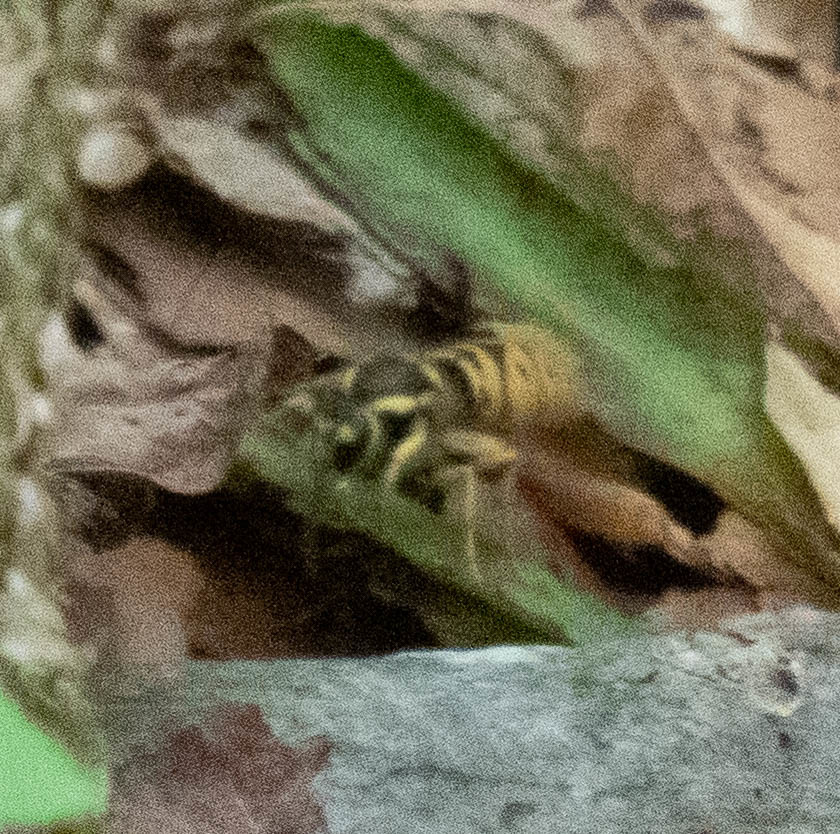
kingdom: Animalia
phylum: Arthropoda
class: Insecta
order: Hymenoptera
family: Vespidae
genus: Vespula
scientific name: Vespula maculifrons
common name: Eastern yellowjacket
